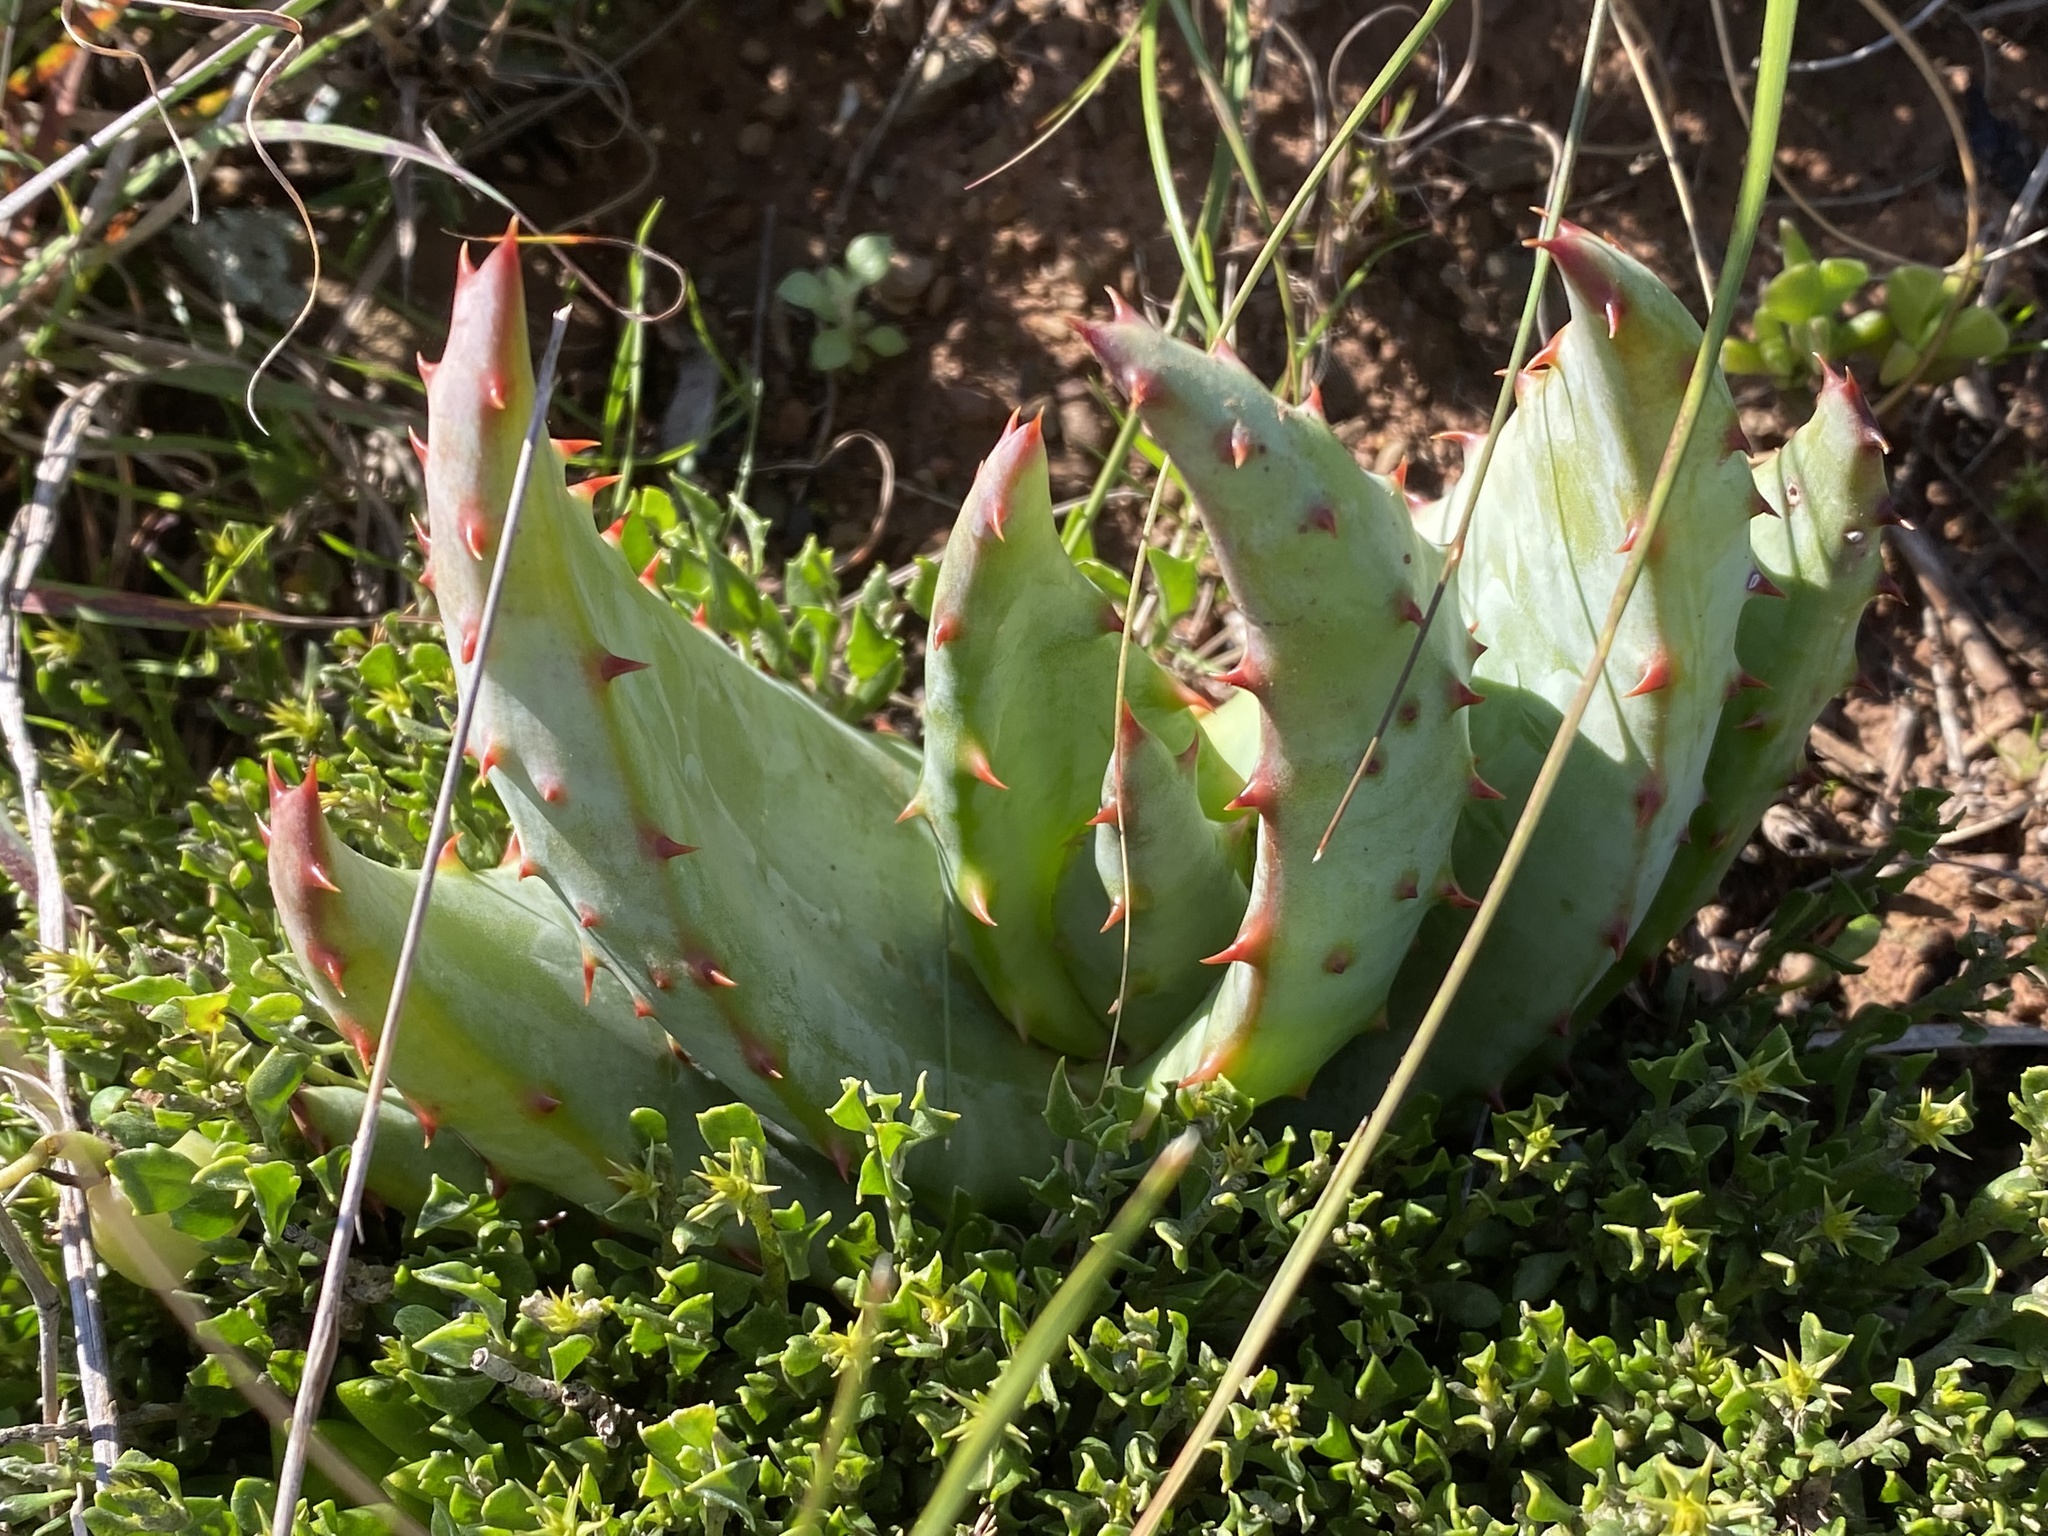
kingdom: Plantae
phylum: Tracheophyta
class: Liliopsida
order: Asparagales
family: Asphodelaceae
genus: Aloe
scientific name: Aloe ferox
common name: Bitter aloe
